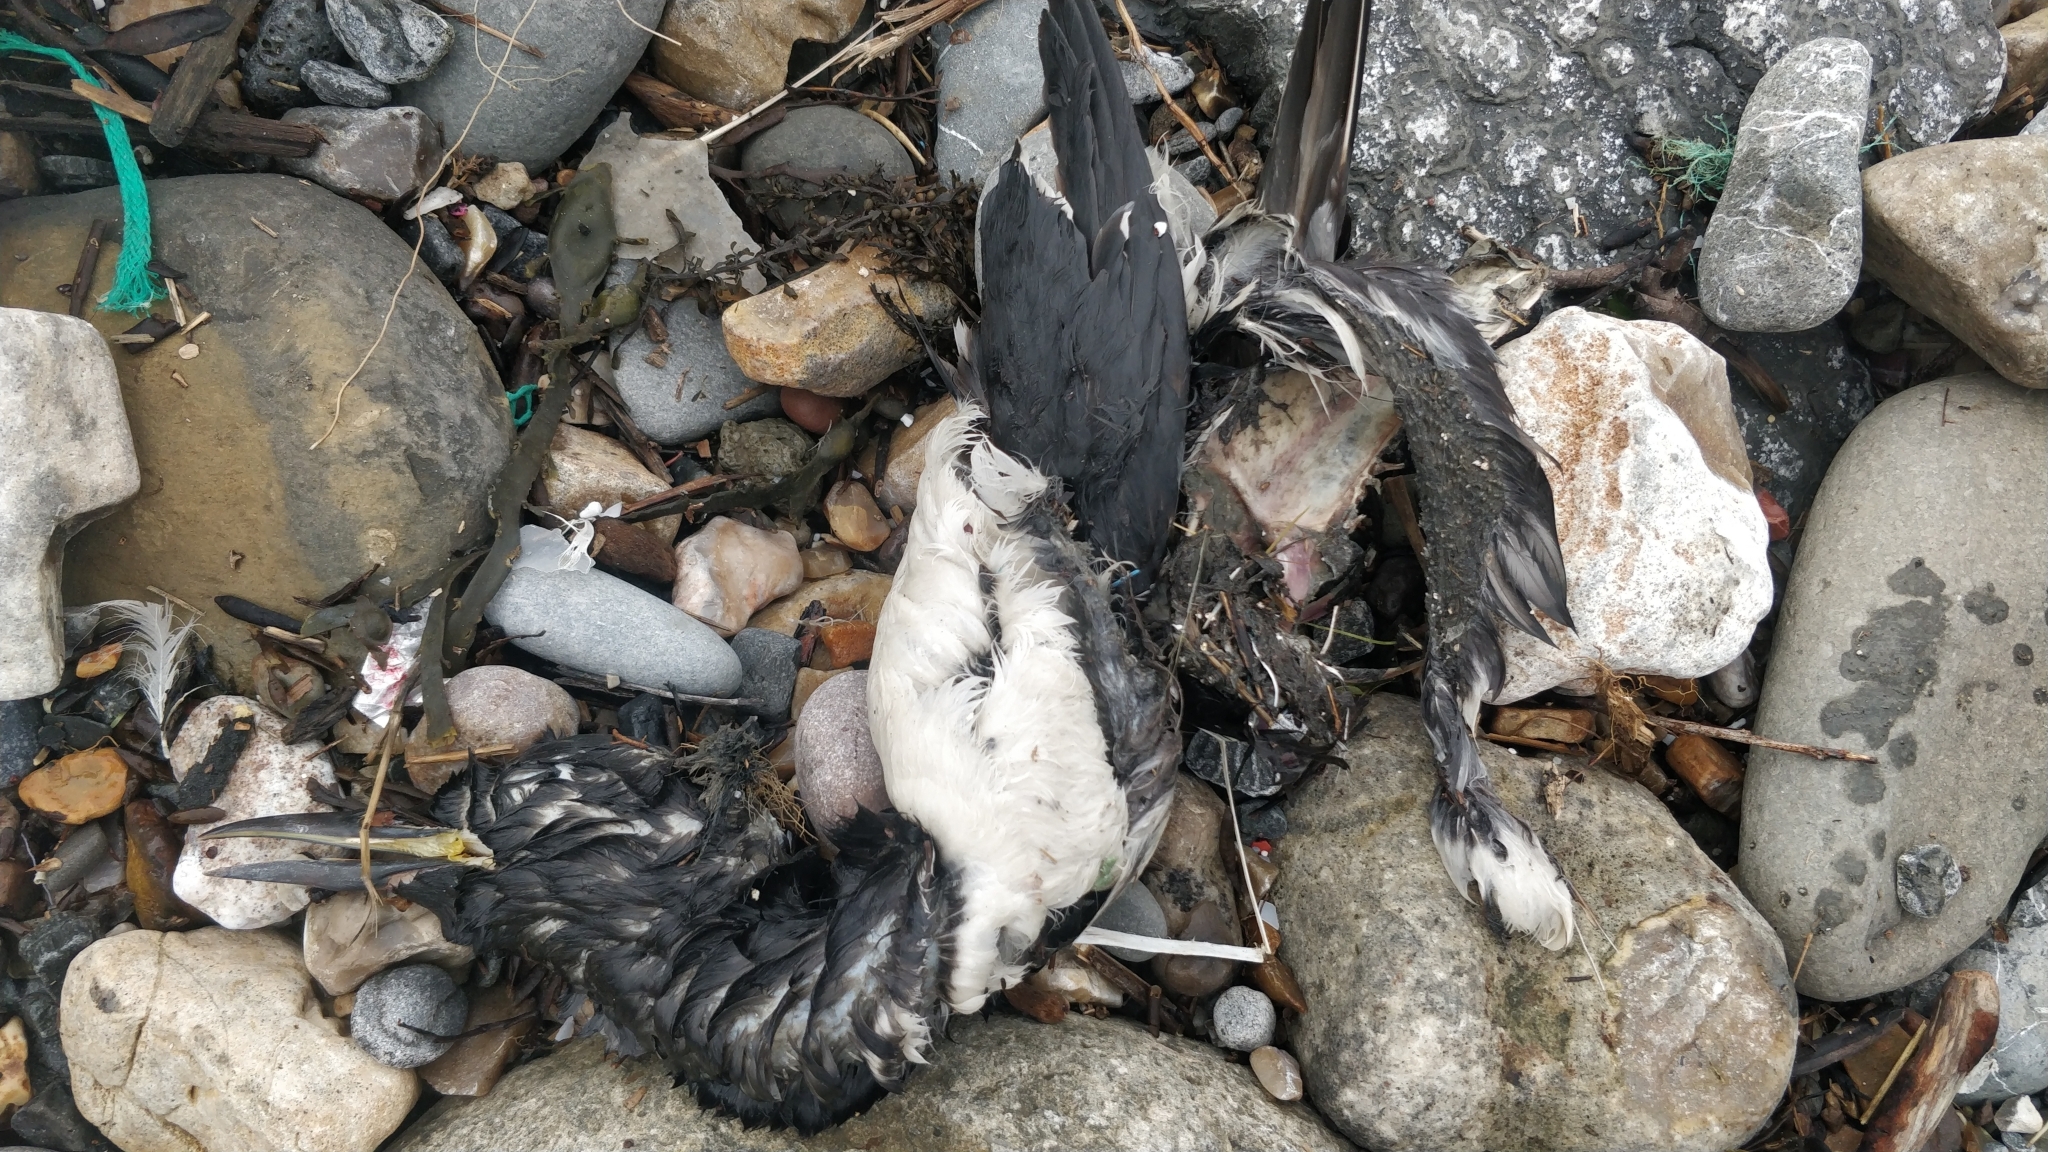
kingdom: Animalia
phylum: Chordata
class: Aves
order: Charadriiformes
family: Alcidae
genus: Uria
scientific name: Uria aalge
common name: Common murre
